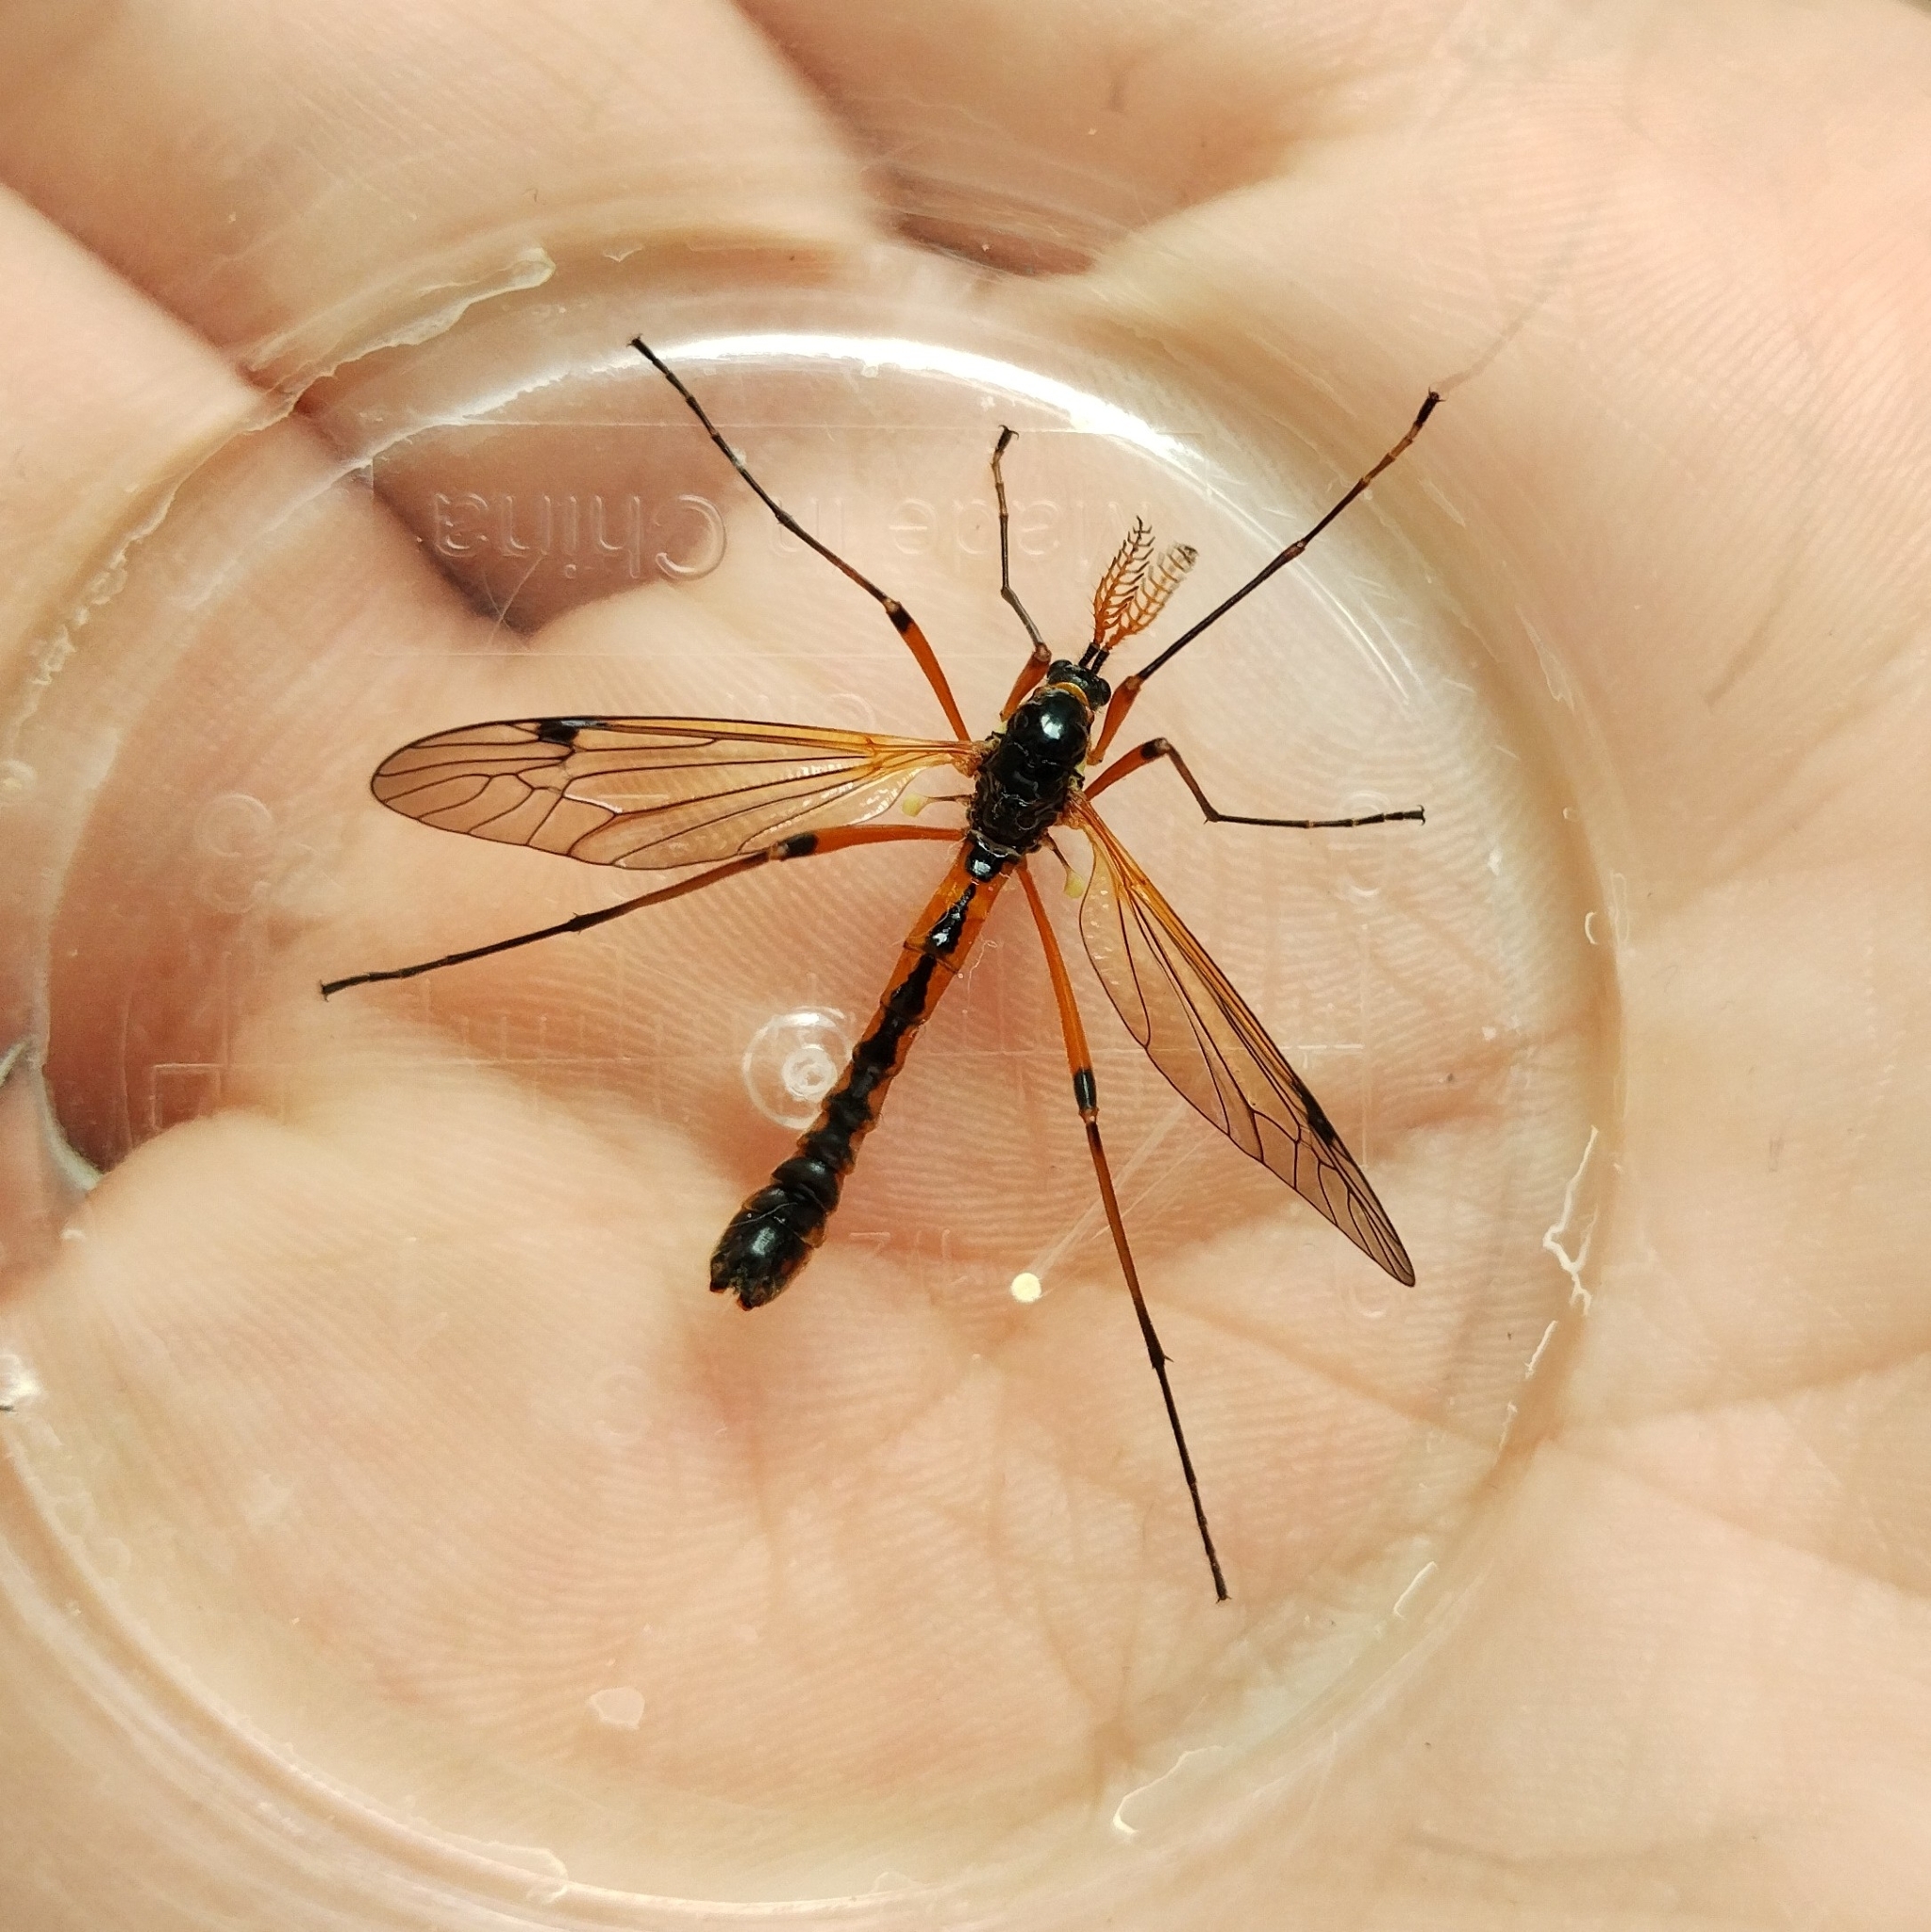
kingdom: Animalia
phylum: Arthropoda
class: Insecta
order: Diptera
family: Tipulidae
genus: Tanyptera
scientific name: Tanyptera atrata
